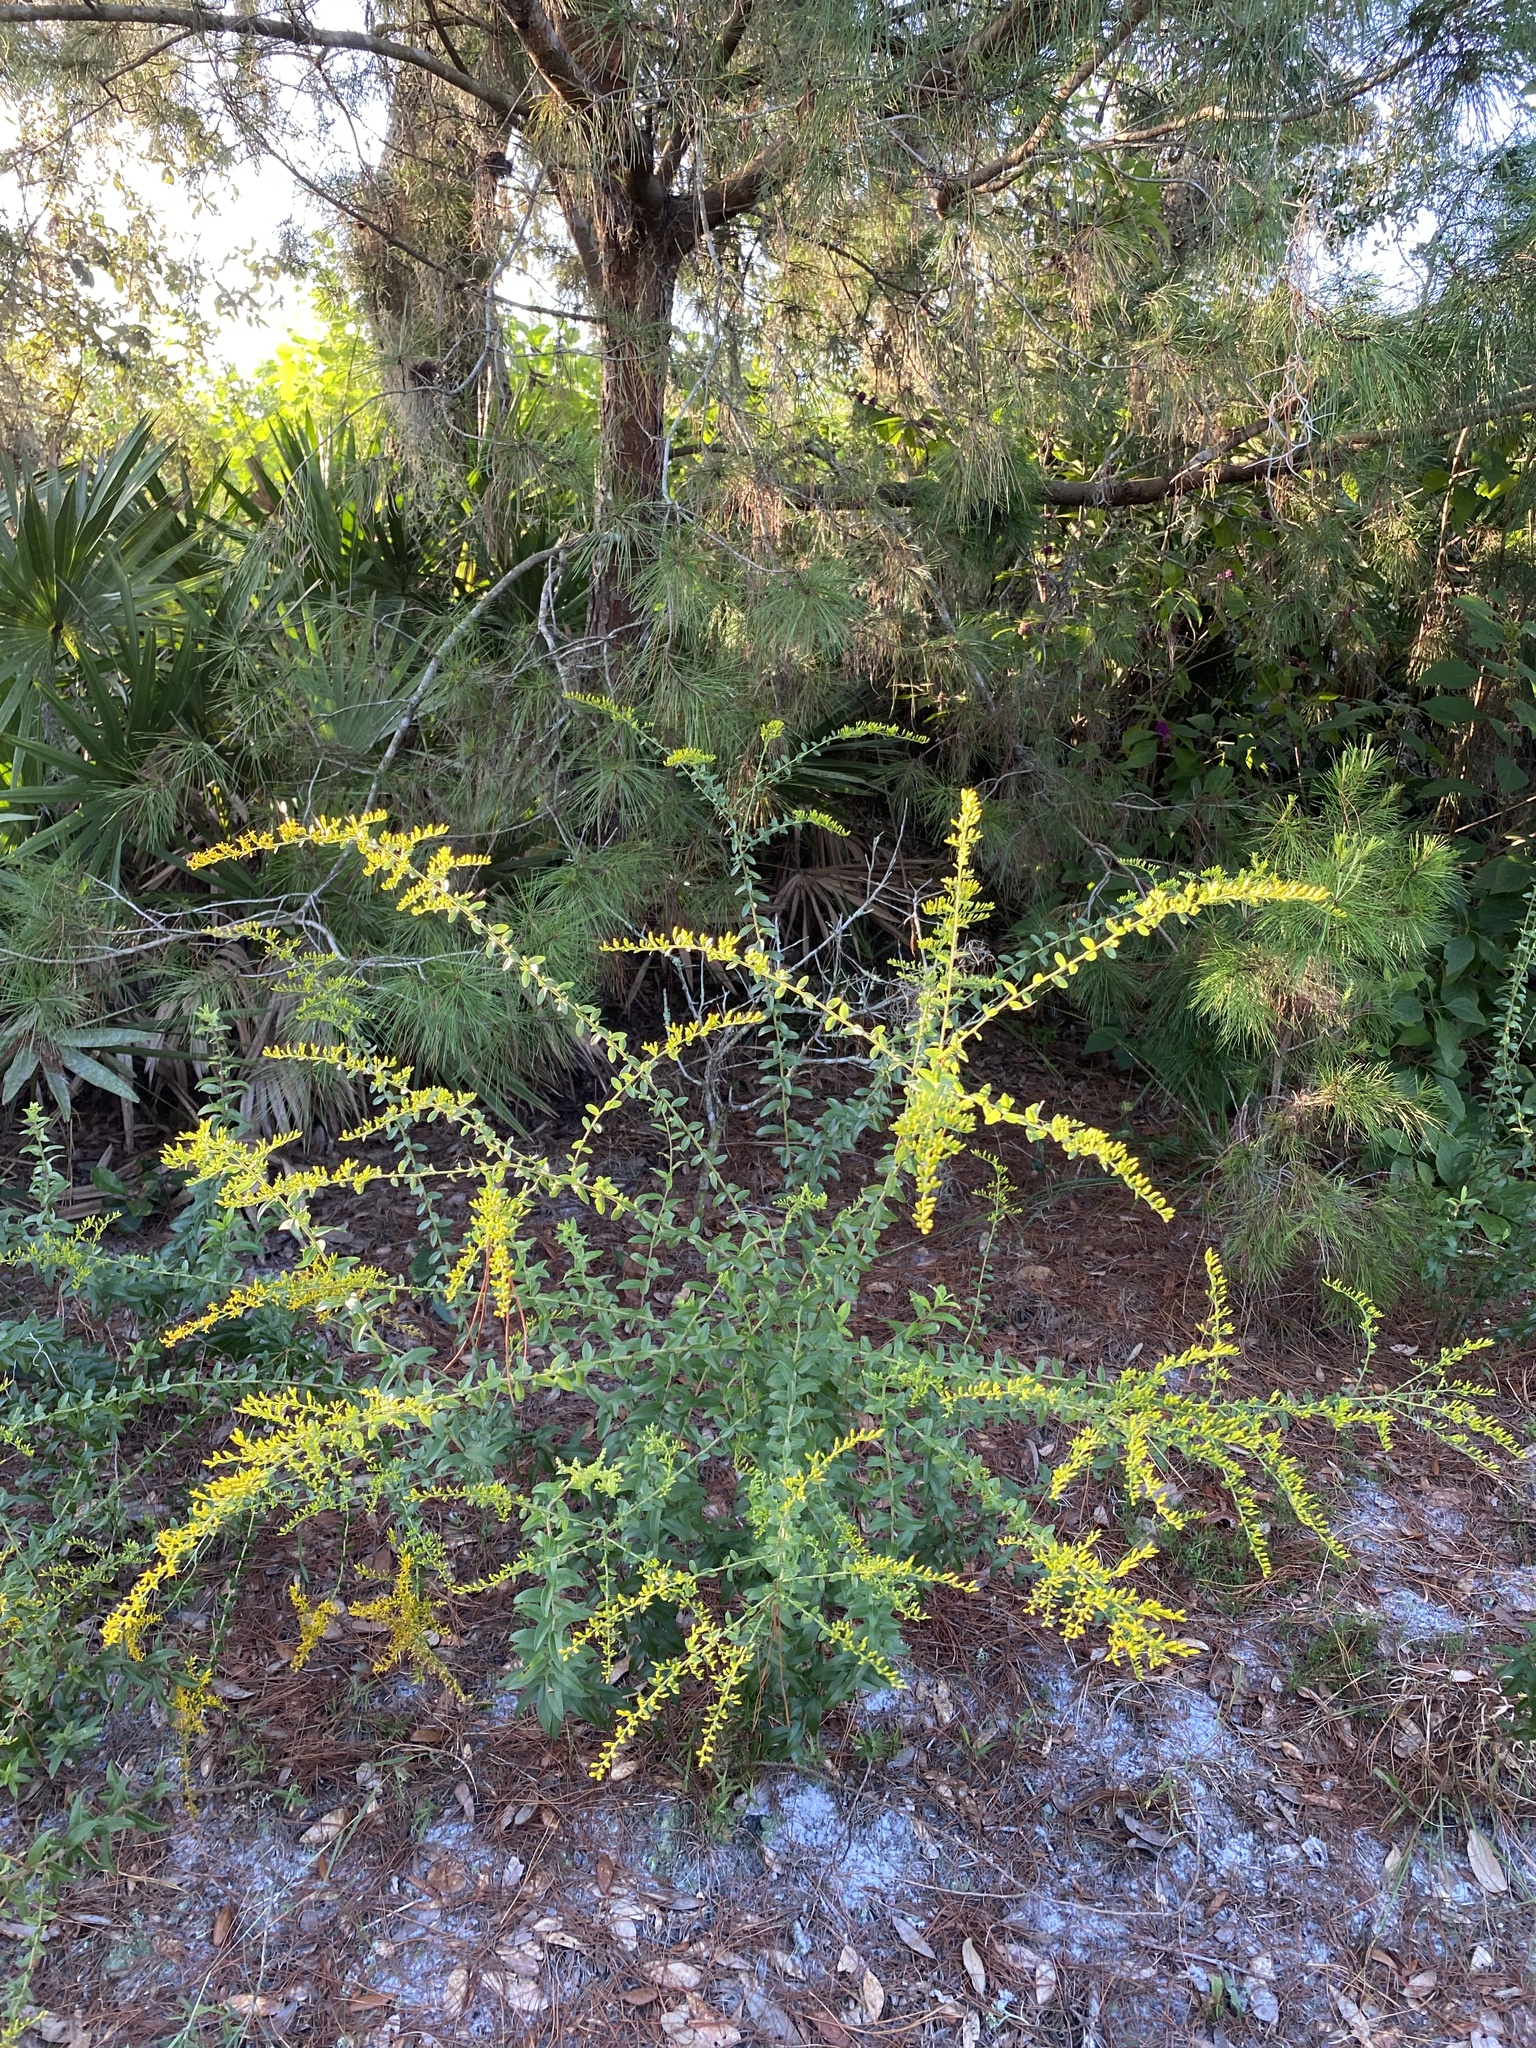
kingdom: Plantae
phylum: Tracheophyta
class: Magnoliopsida
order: Asterales
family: Asteraceae
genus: Solidago
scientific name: Solidago chapmanii
